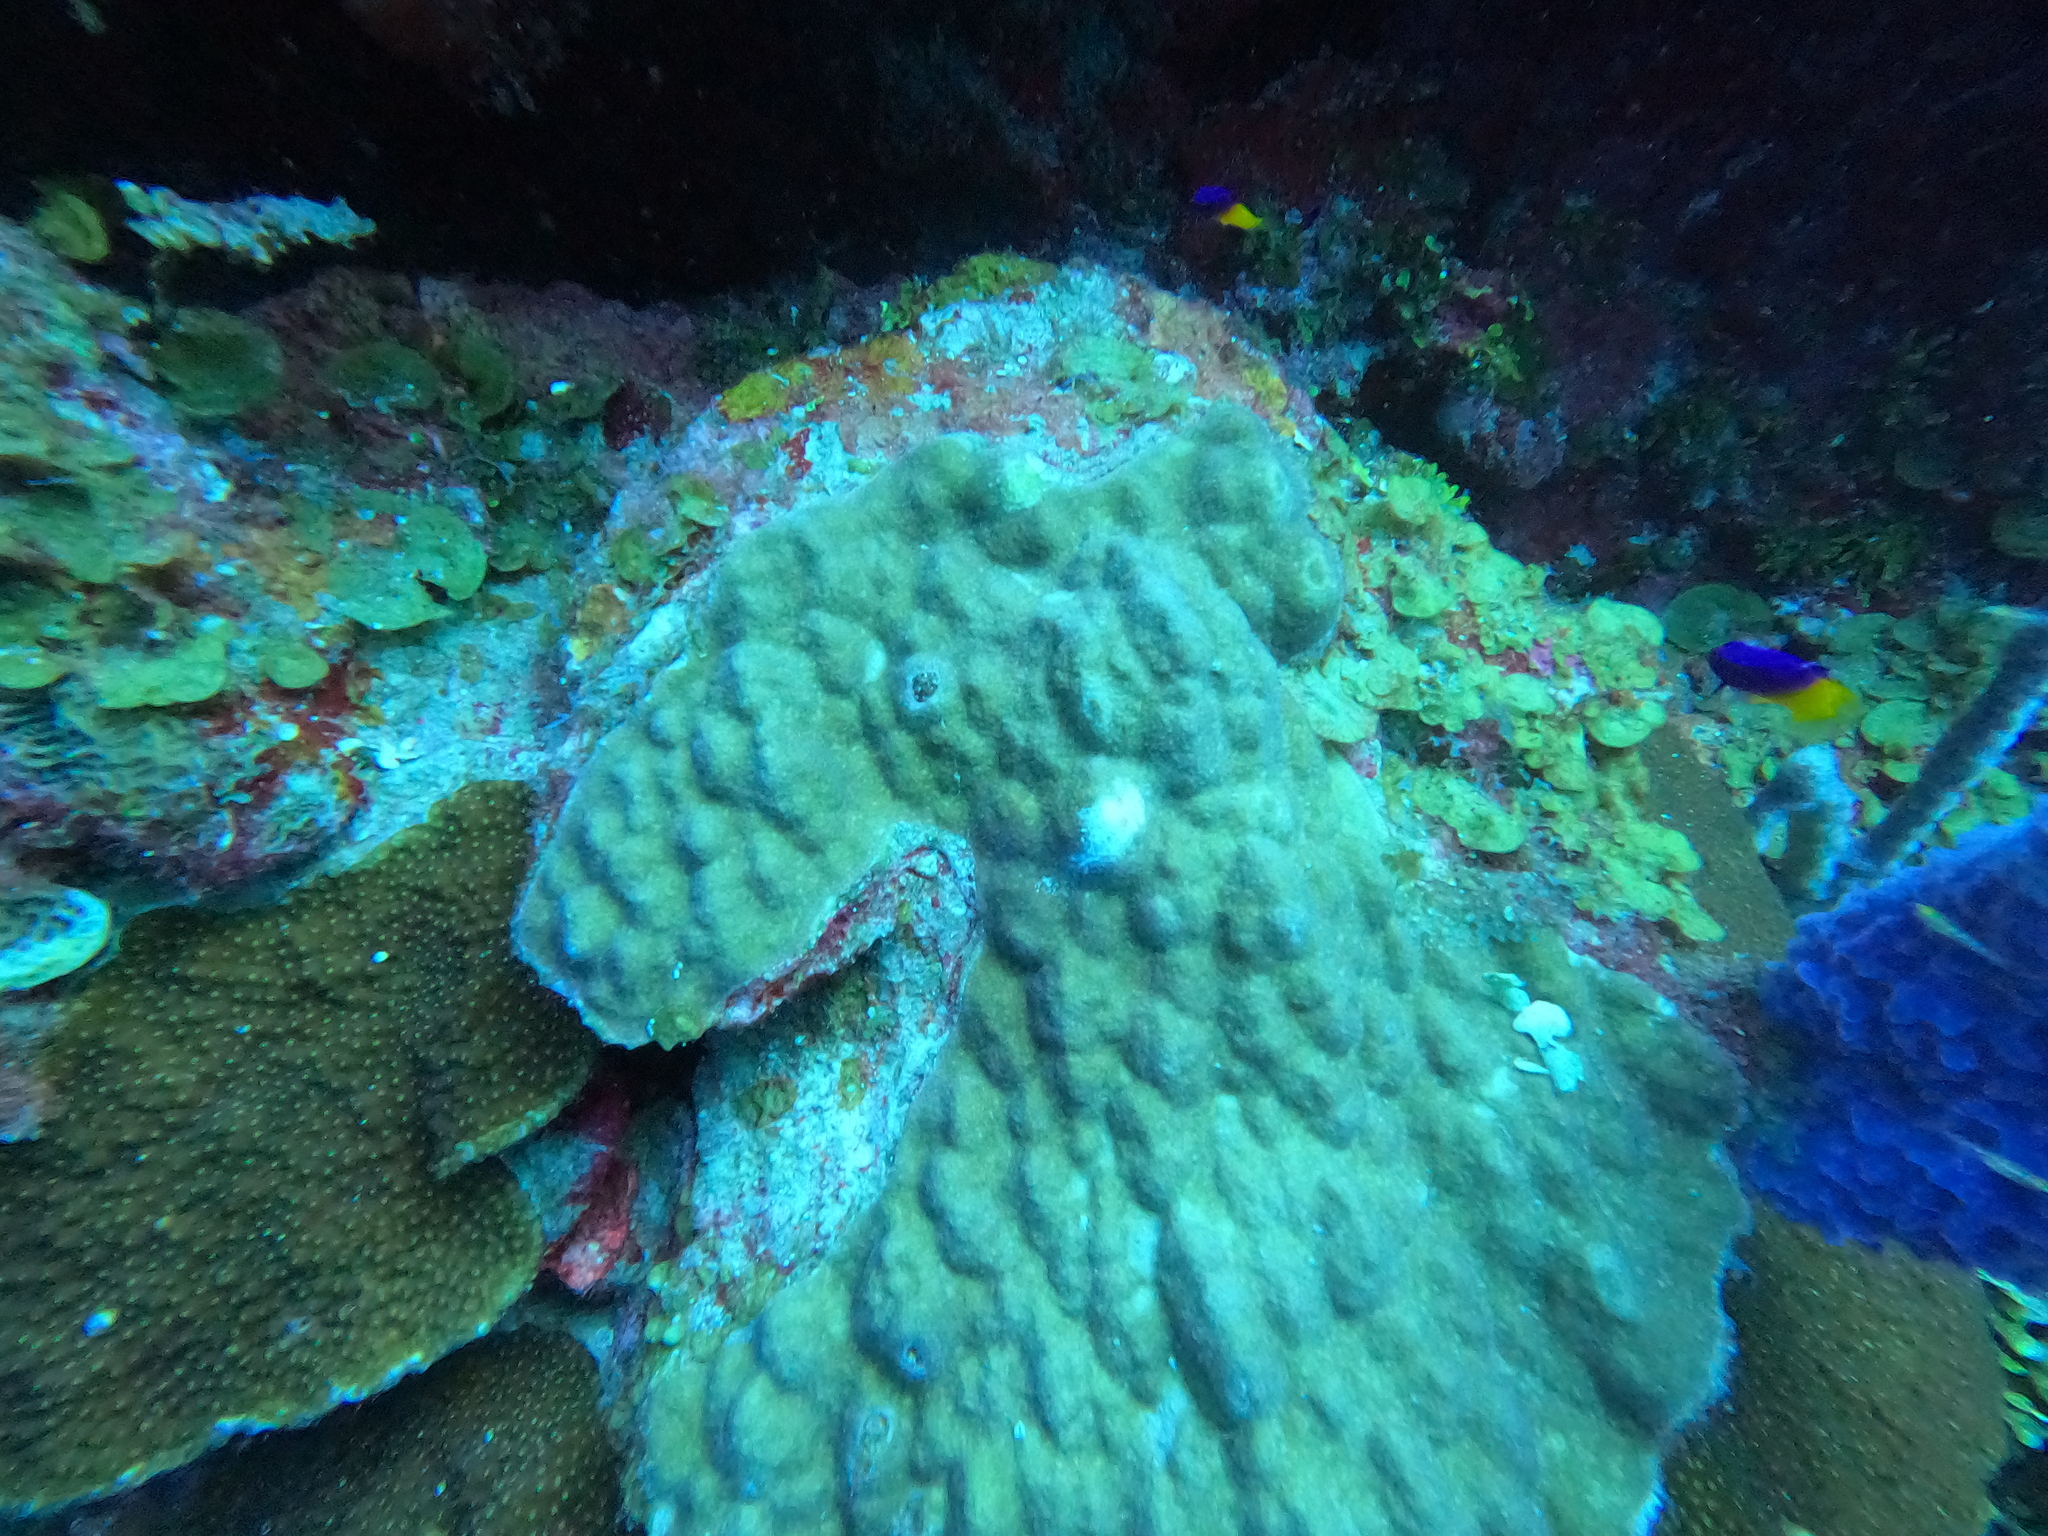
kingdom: Animalia
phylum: Porifera
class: Demospongiae
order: Haplosclerida
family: Callyspongiidae
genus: Callyspongia
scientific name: Callyspongia plicifera
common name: Azure vase sponge
